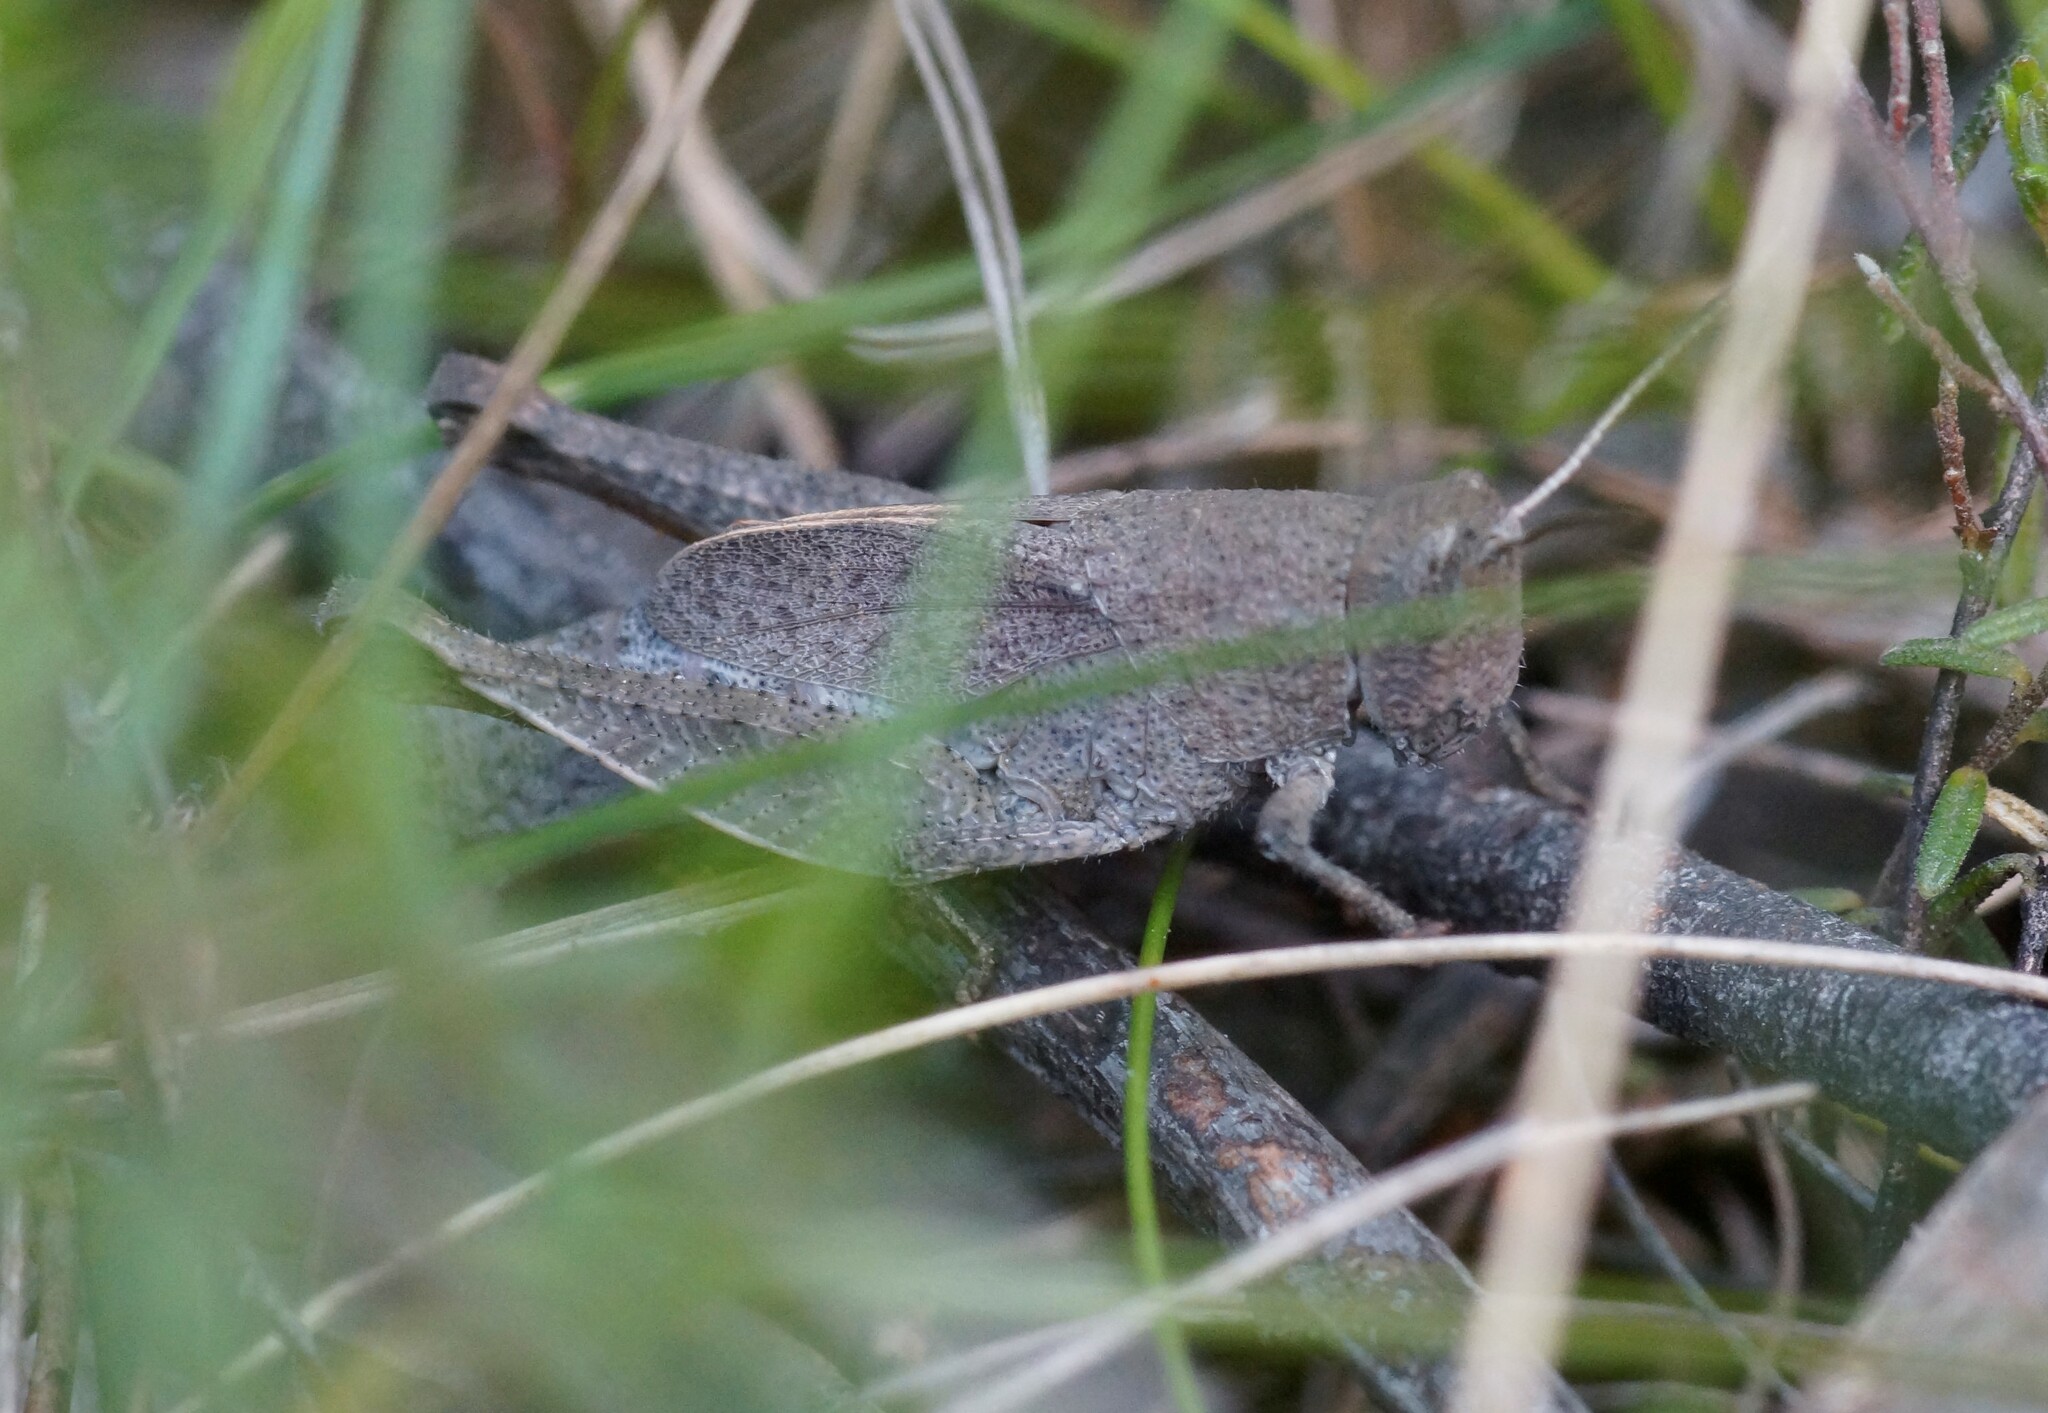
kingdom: Animalia
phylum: Arthropoda
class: Insecta
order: Orthoptera
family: Acrididae
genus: Rhitzala
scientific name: Rhitzala modesta
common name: Short-winged heath grasshopper
